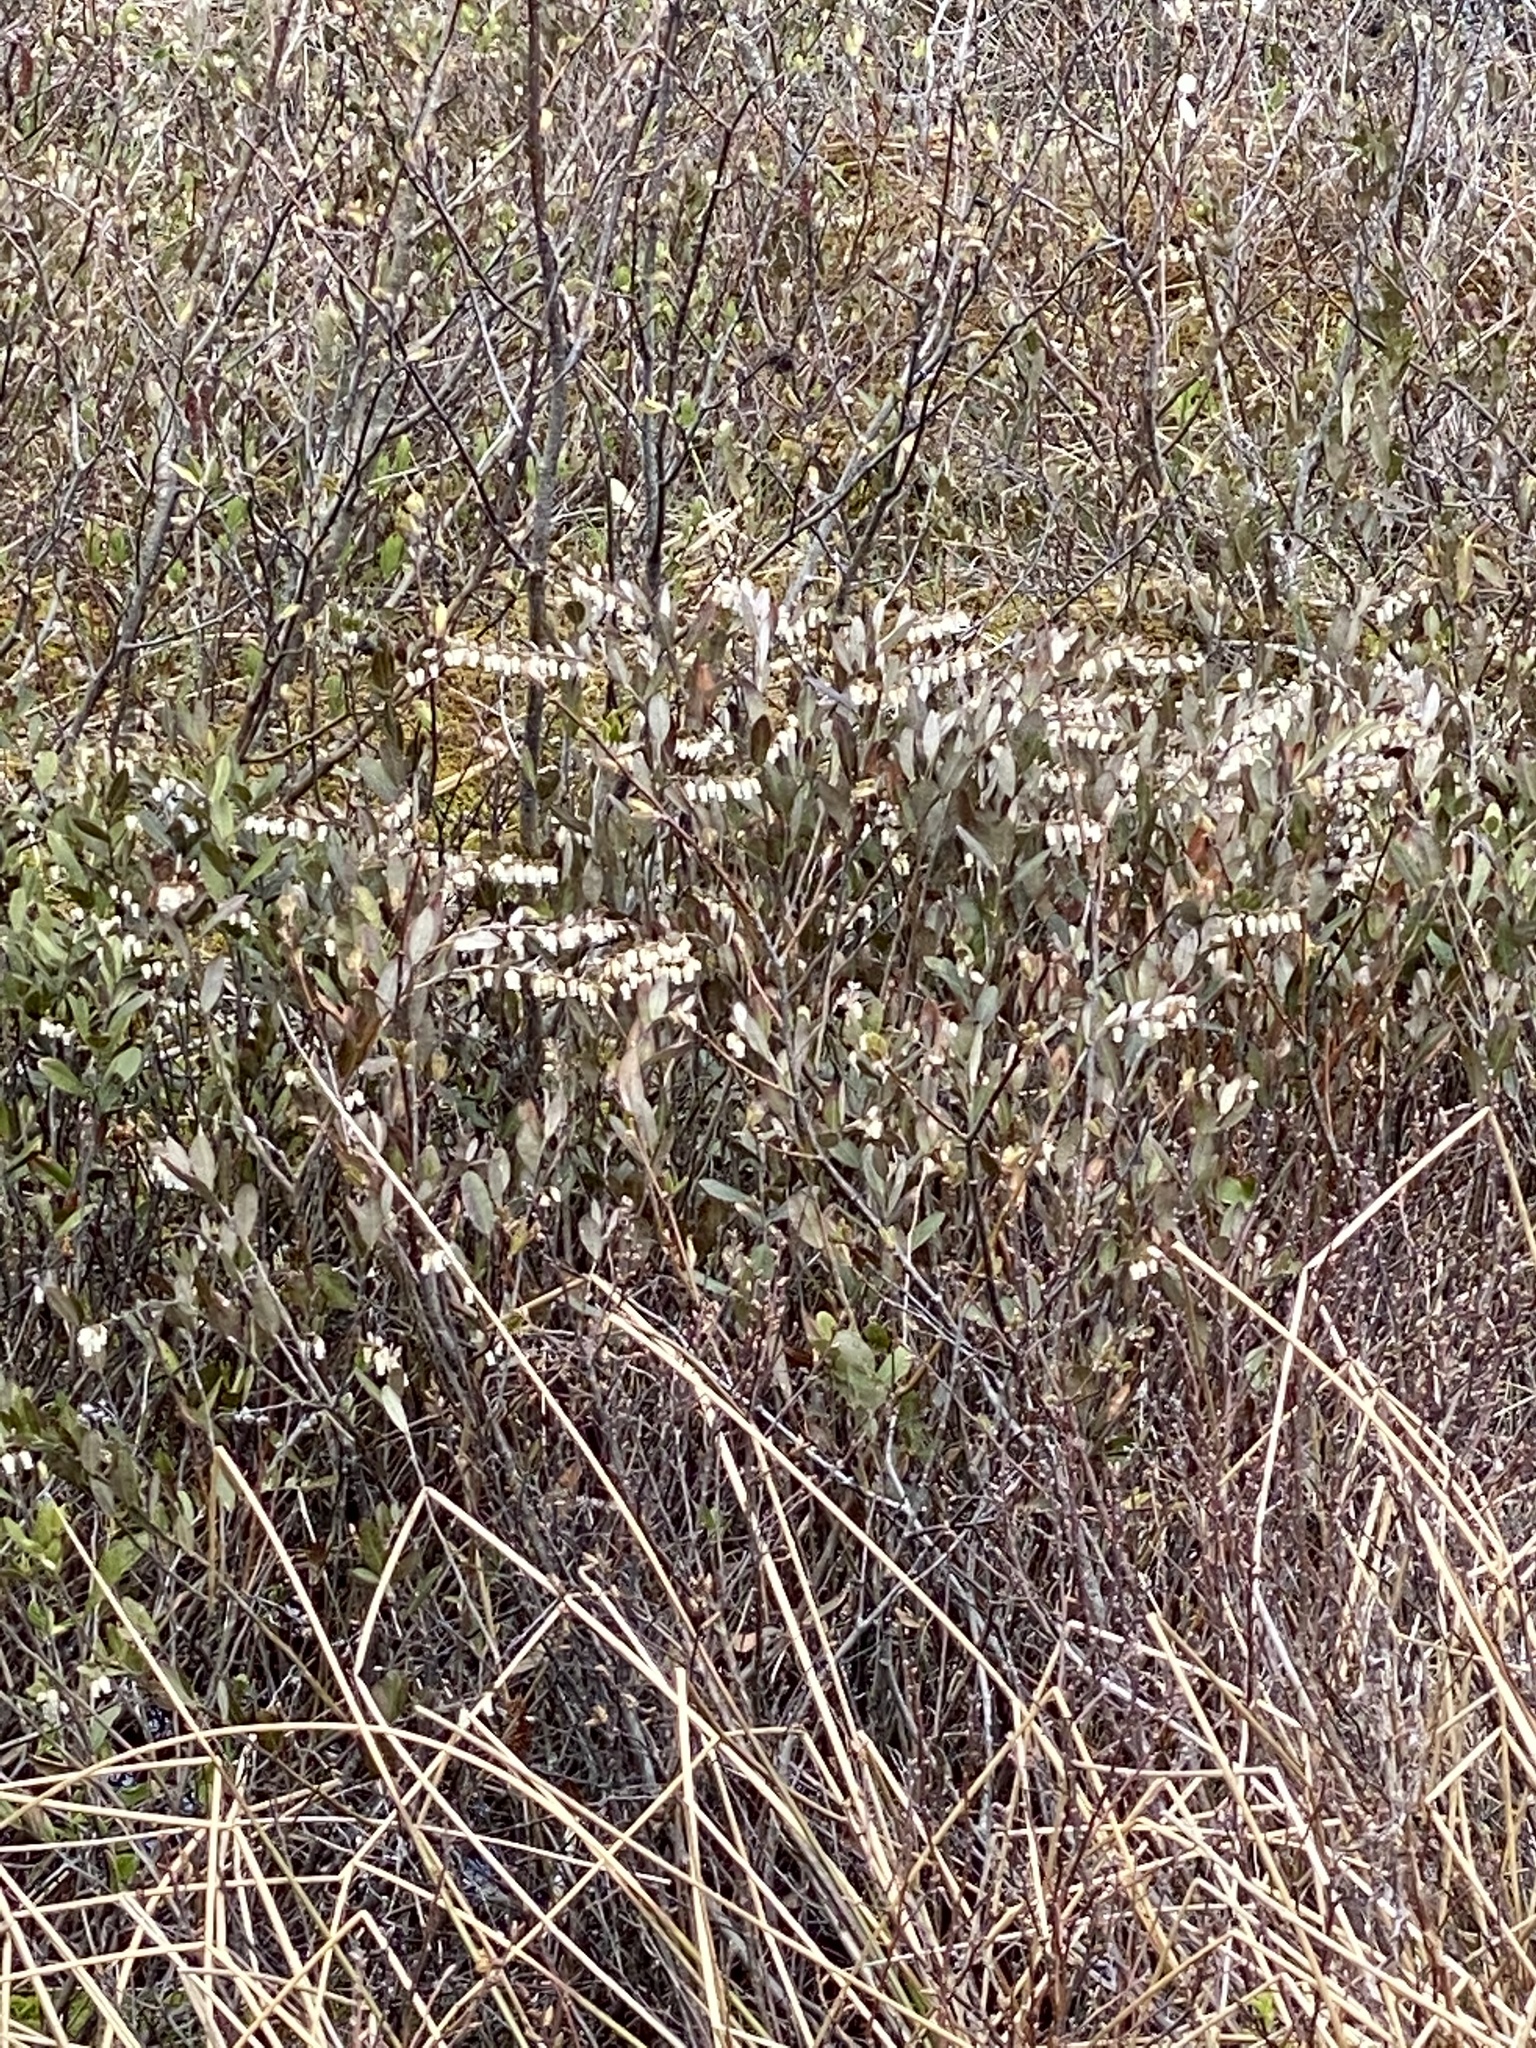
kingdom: Plantae
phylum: Tracheophyta
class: Magnoliopsida
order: Ericales
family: Ericaceae
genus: Chamaedaphne
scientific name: Chamaedaphne calyculata
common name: Leatherleaf
